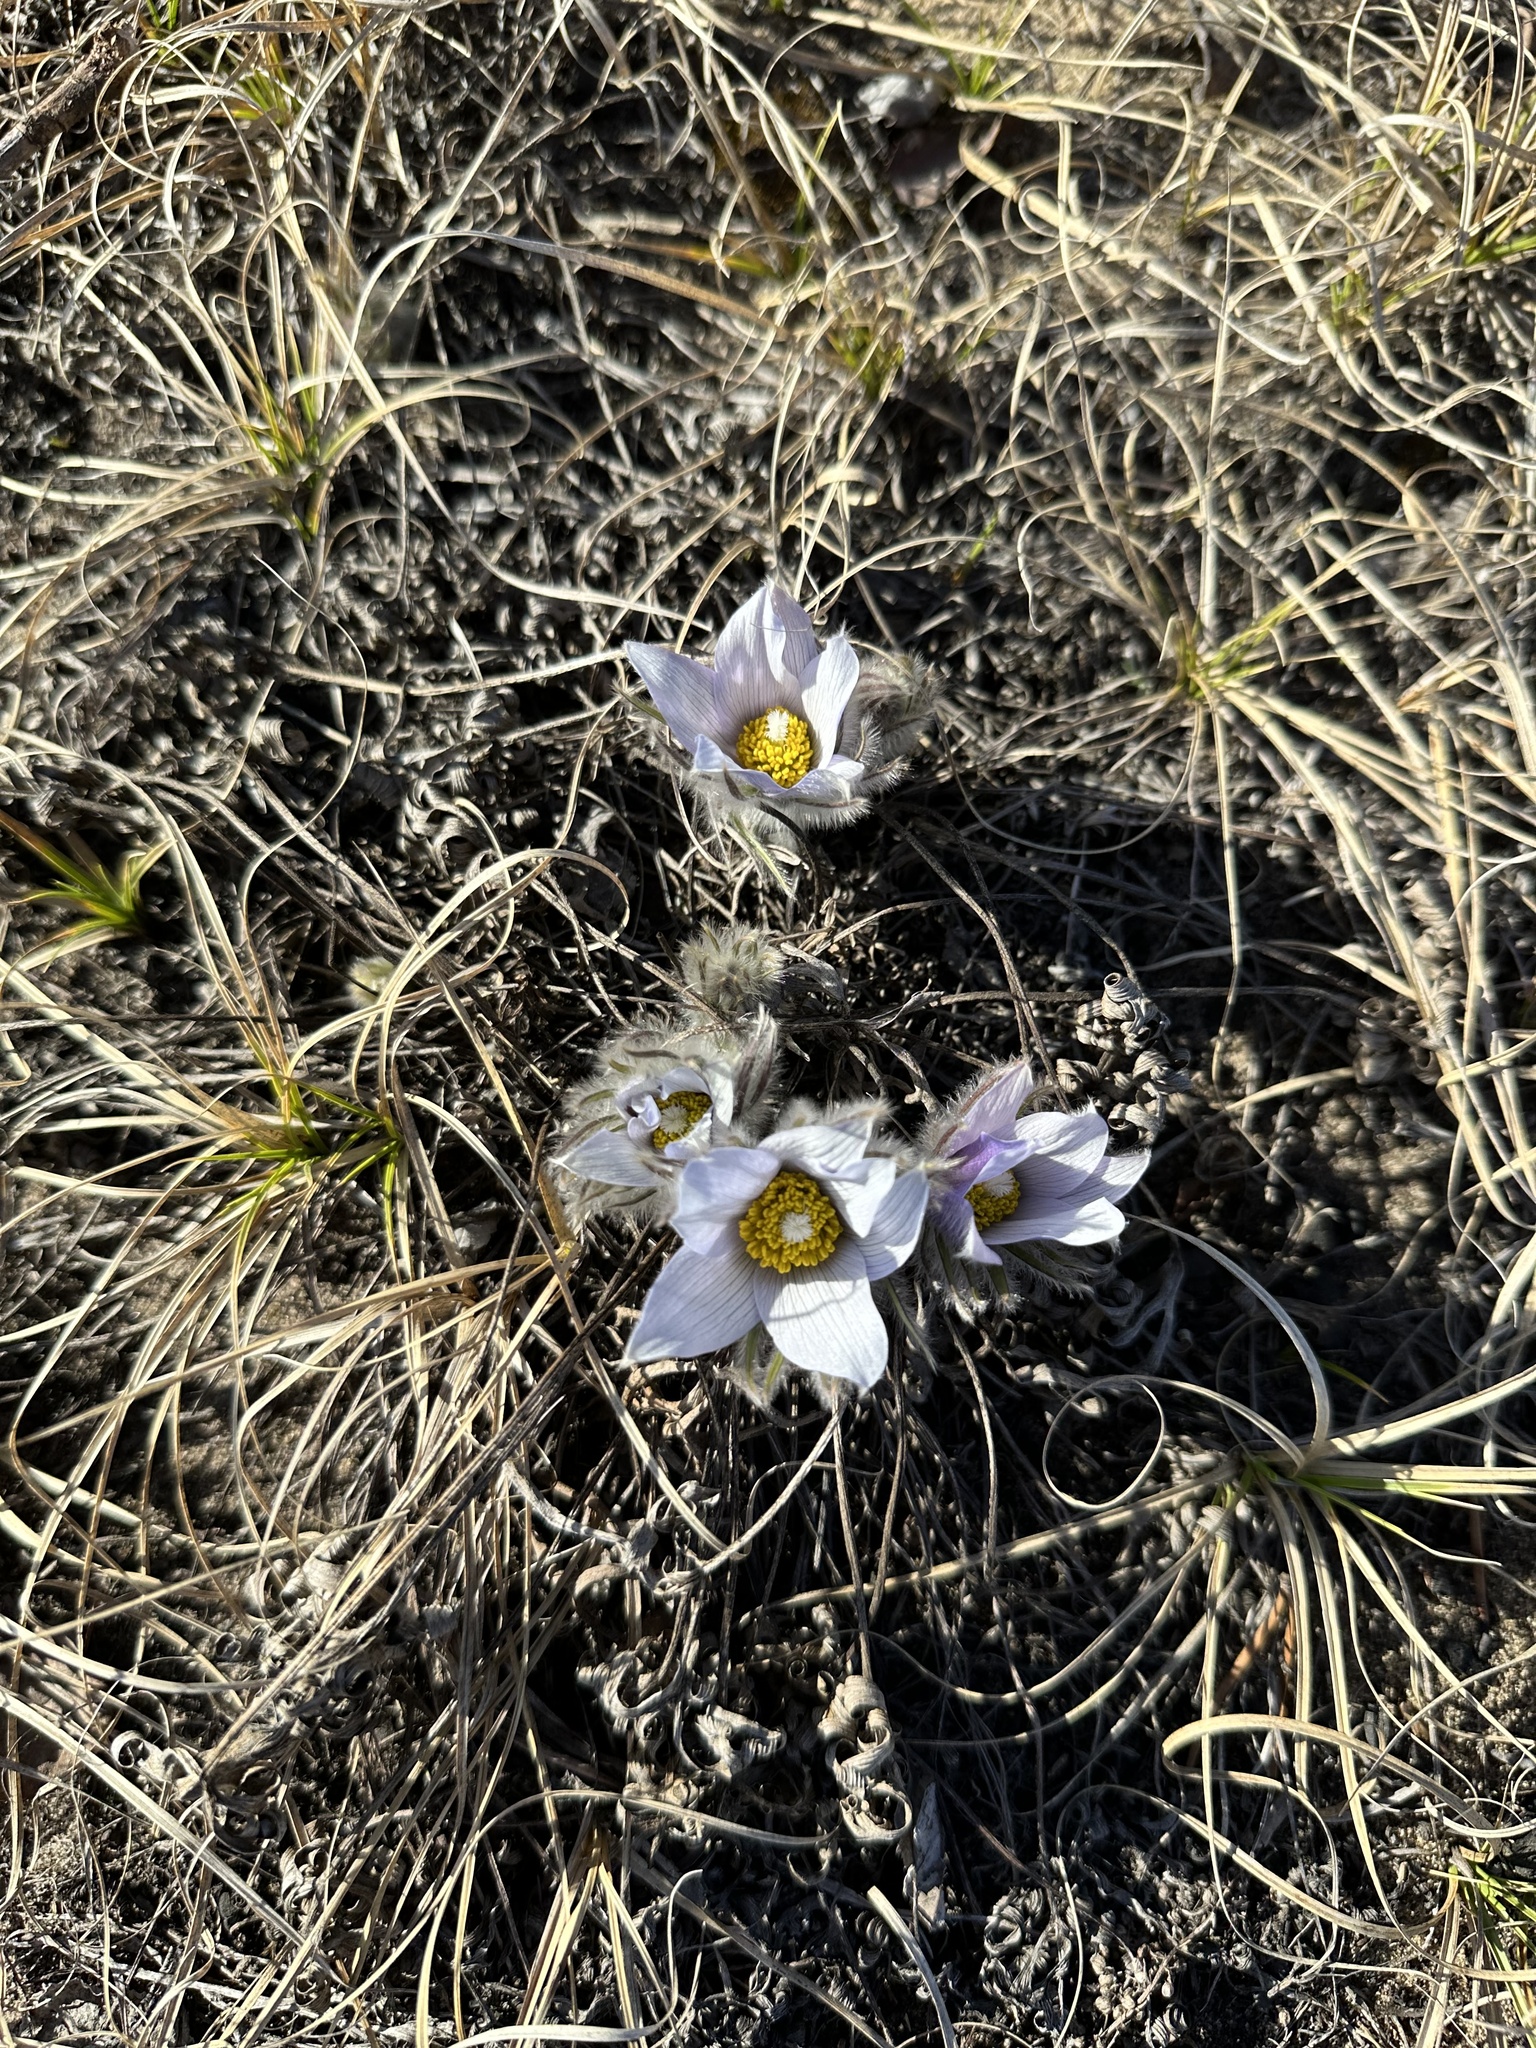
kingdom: Plantae
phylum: Tracheophyta
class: Magnoliopsida
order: Ranunculales
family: Ranunculaceae
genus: Pulsatilla
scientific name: Pulsatilla nuttalliana
